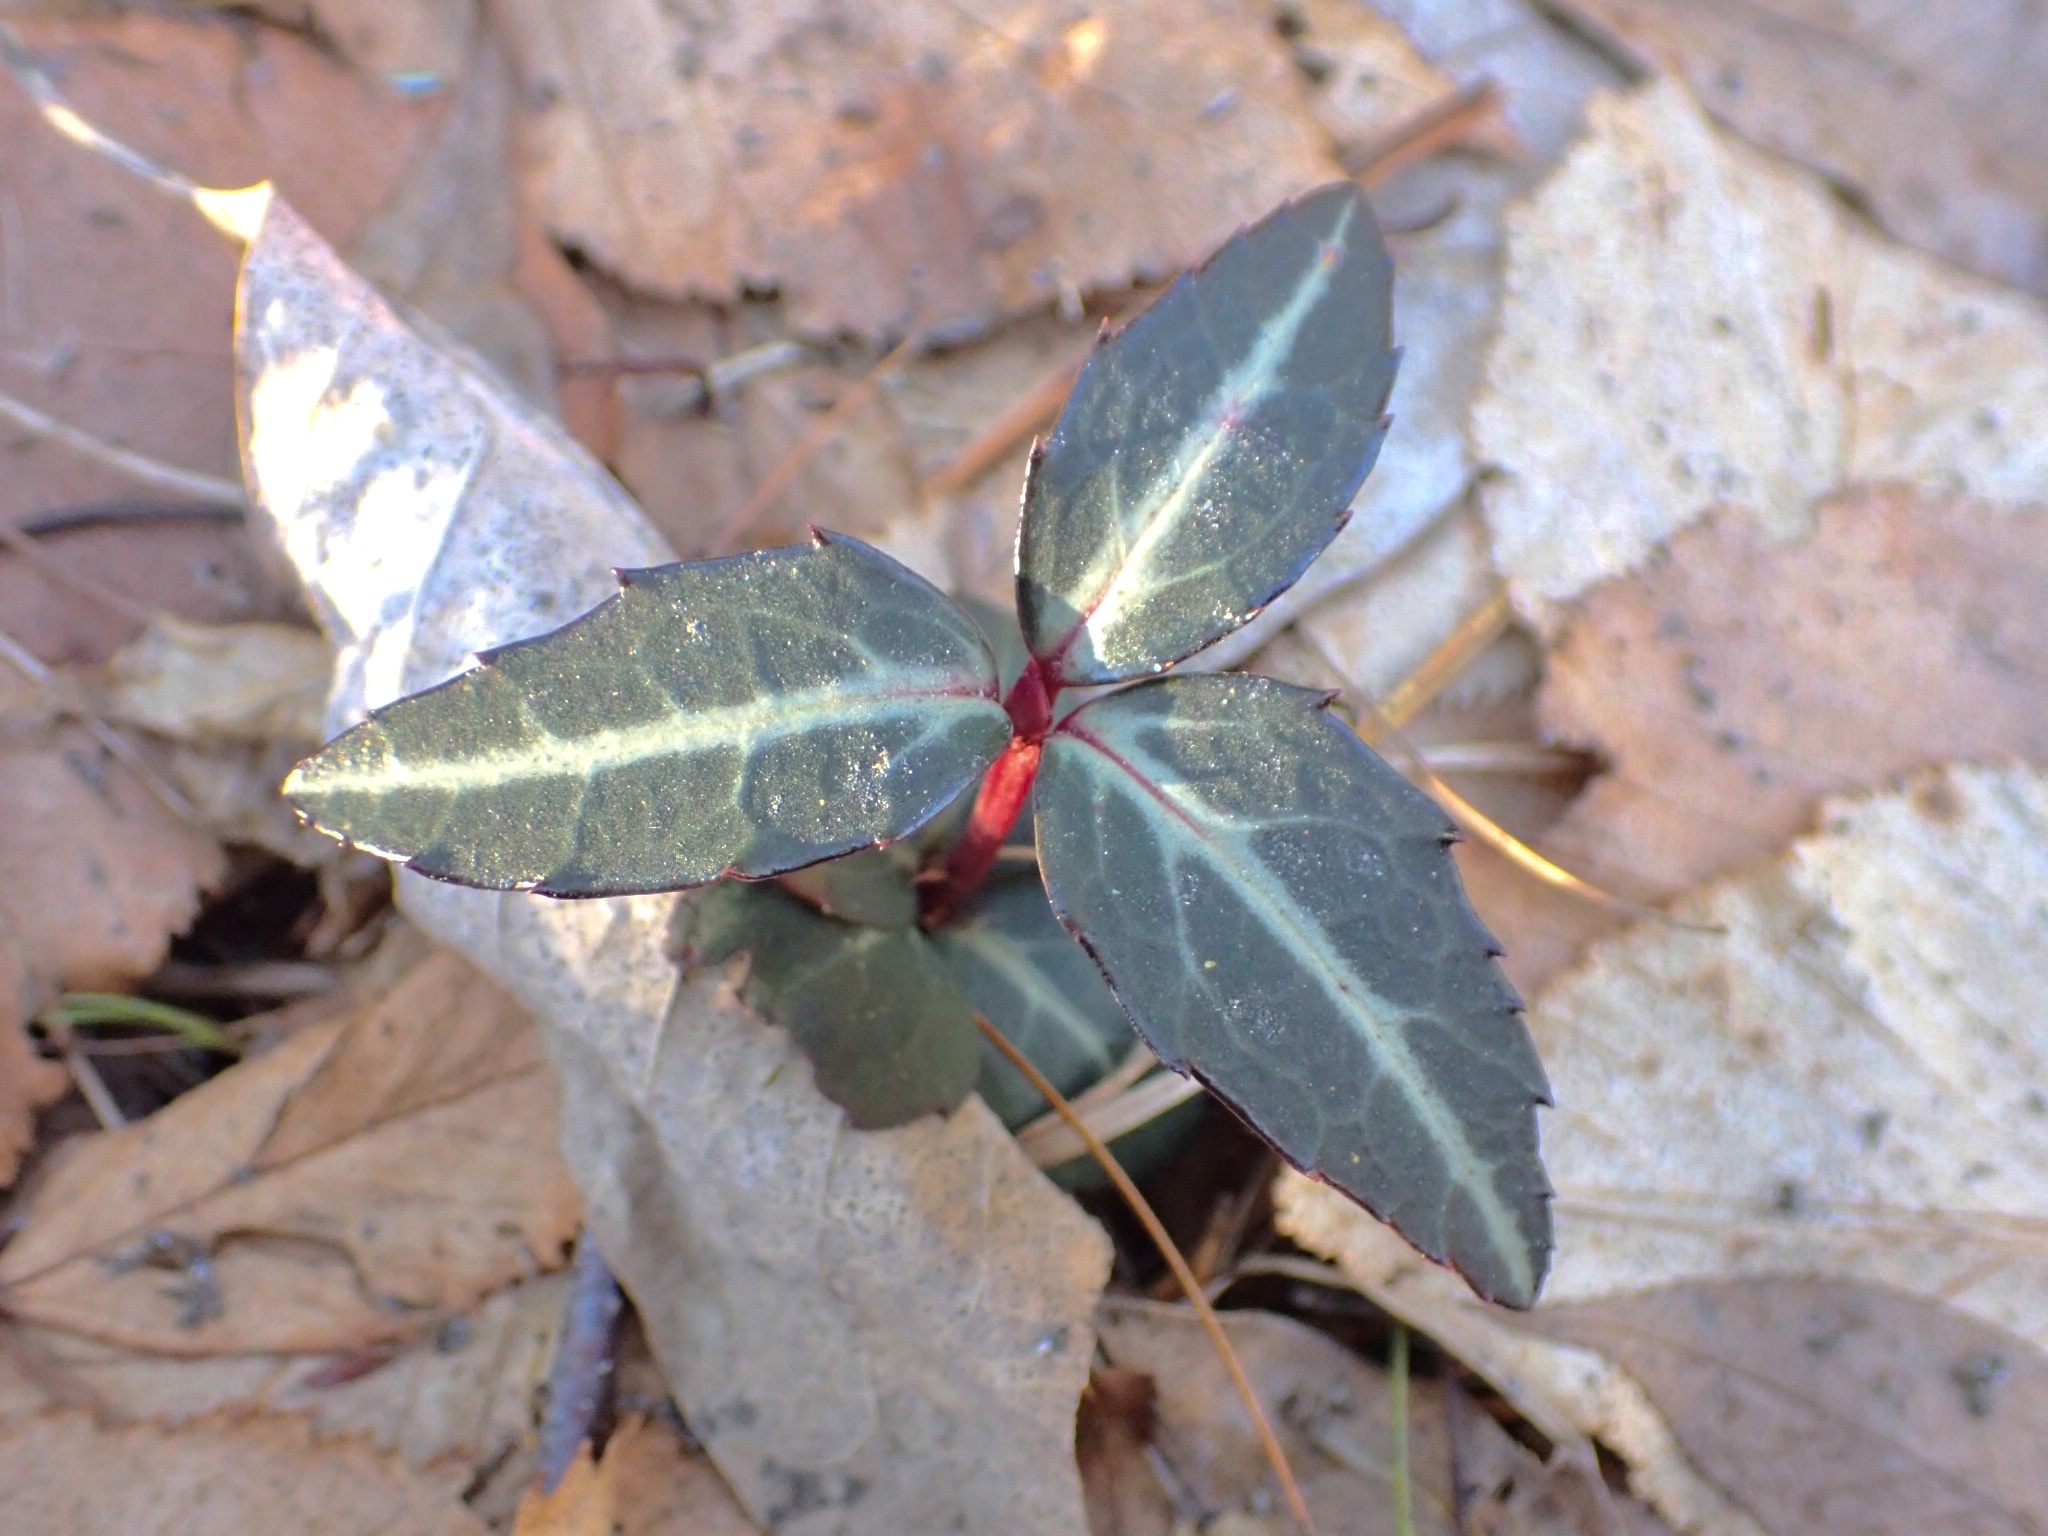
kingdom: Plantae
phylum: Tracheophyta
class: Magnoliopsida
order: Ericales
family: Ericaceae
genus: Chimaphila
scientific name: Chimaphila maculata
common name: Spotted pipsissewa
